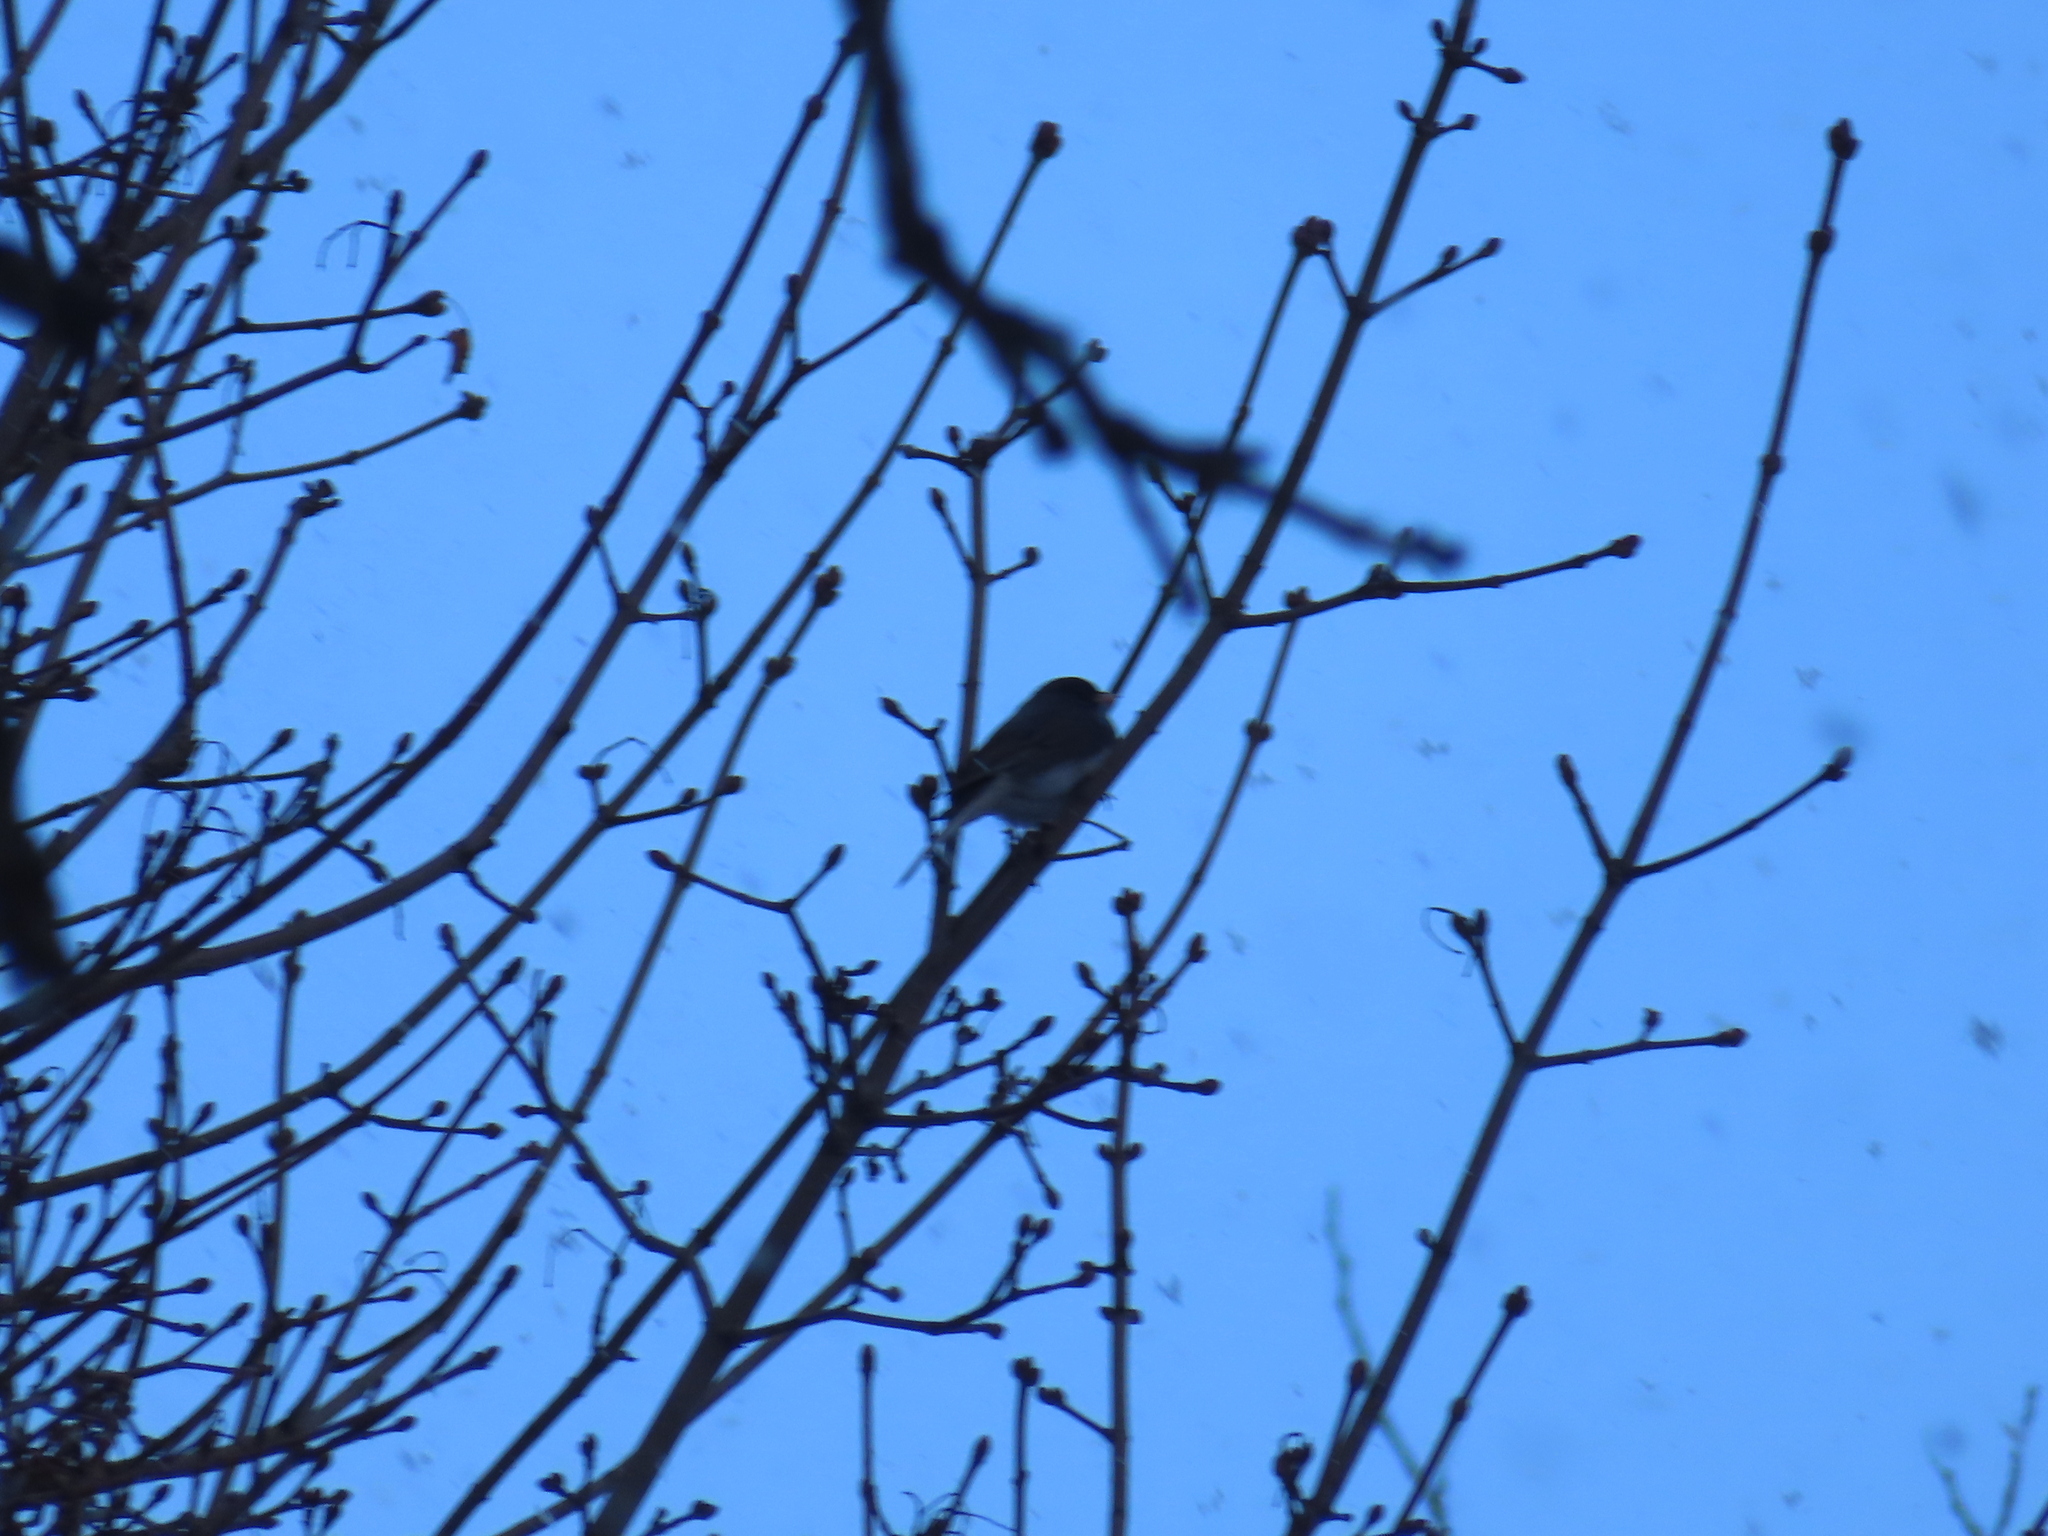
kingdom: Animalia
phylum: Chordata
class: Aves
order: Passeriformes
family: Passerellidae
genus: Junco
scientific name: Junco hyemalis
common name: Dark-eyed junco
